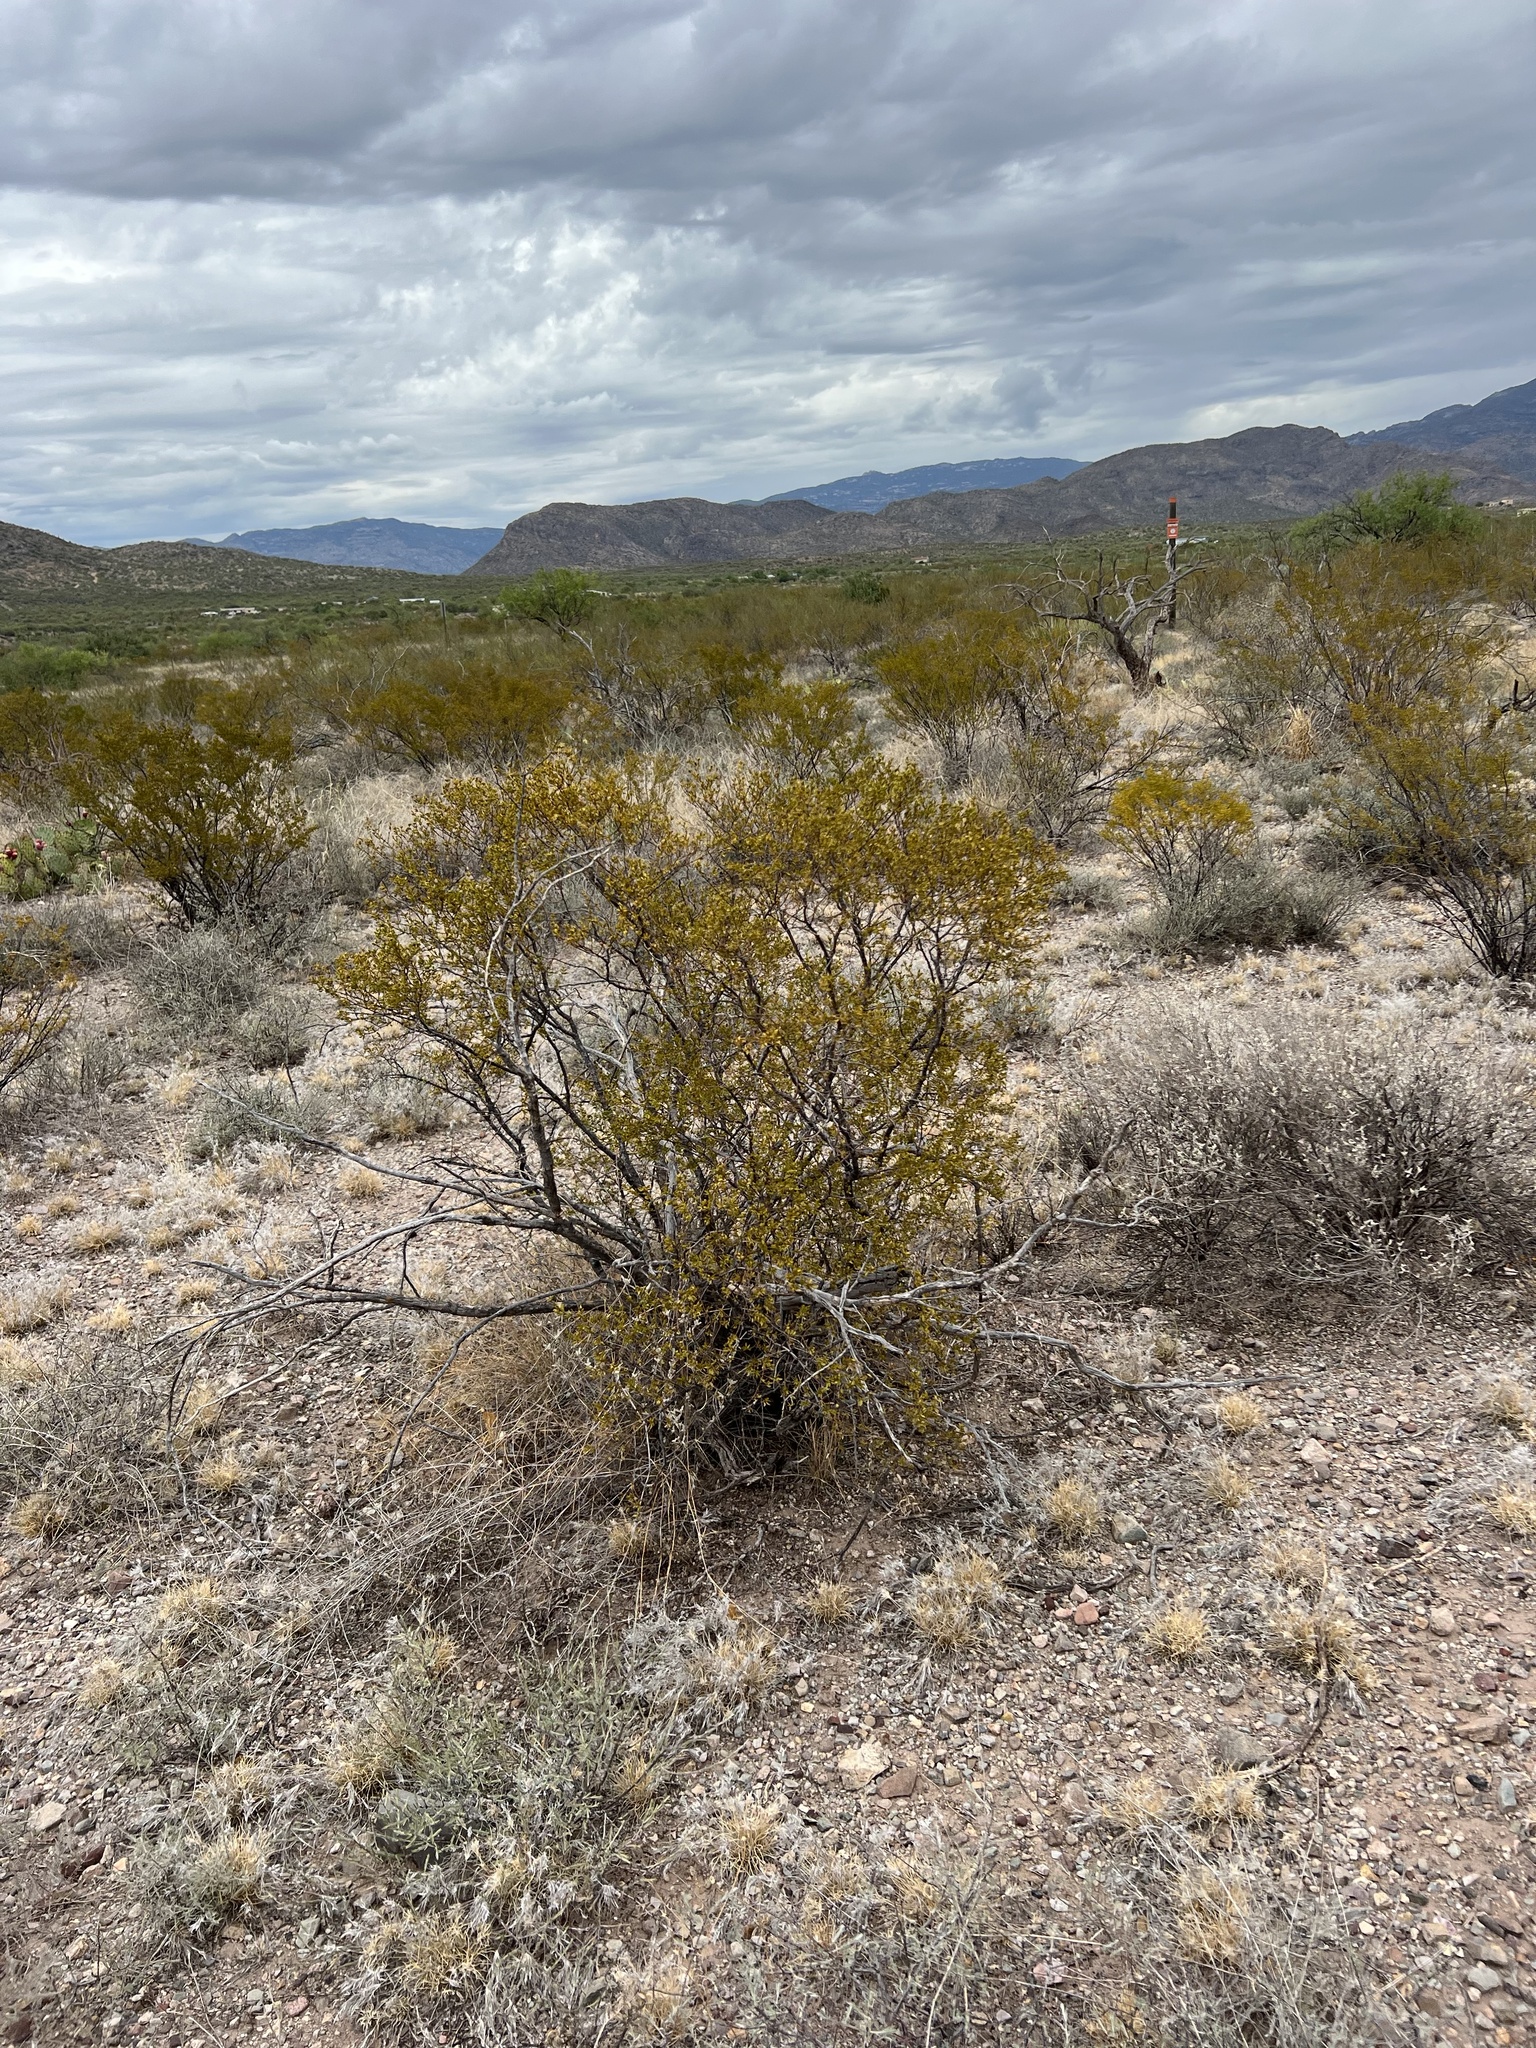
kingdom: Plantae
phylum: Tracheophyta
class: Magnoliopsida
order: Zygophyllales
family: Zygophyllaceae
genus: Larrea
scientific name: Larrea tridentata
